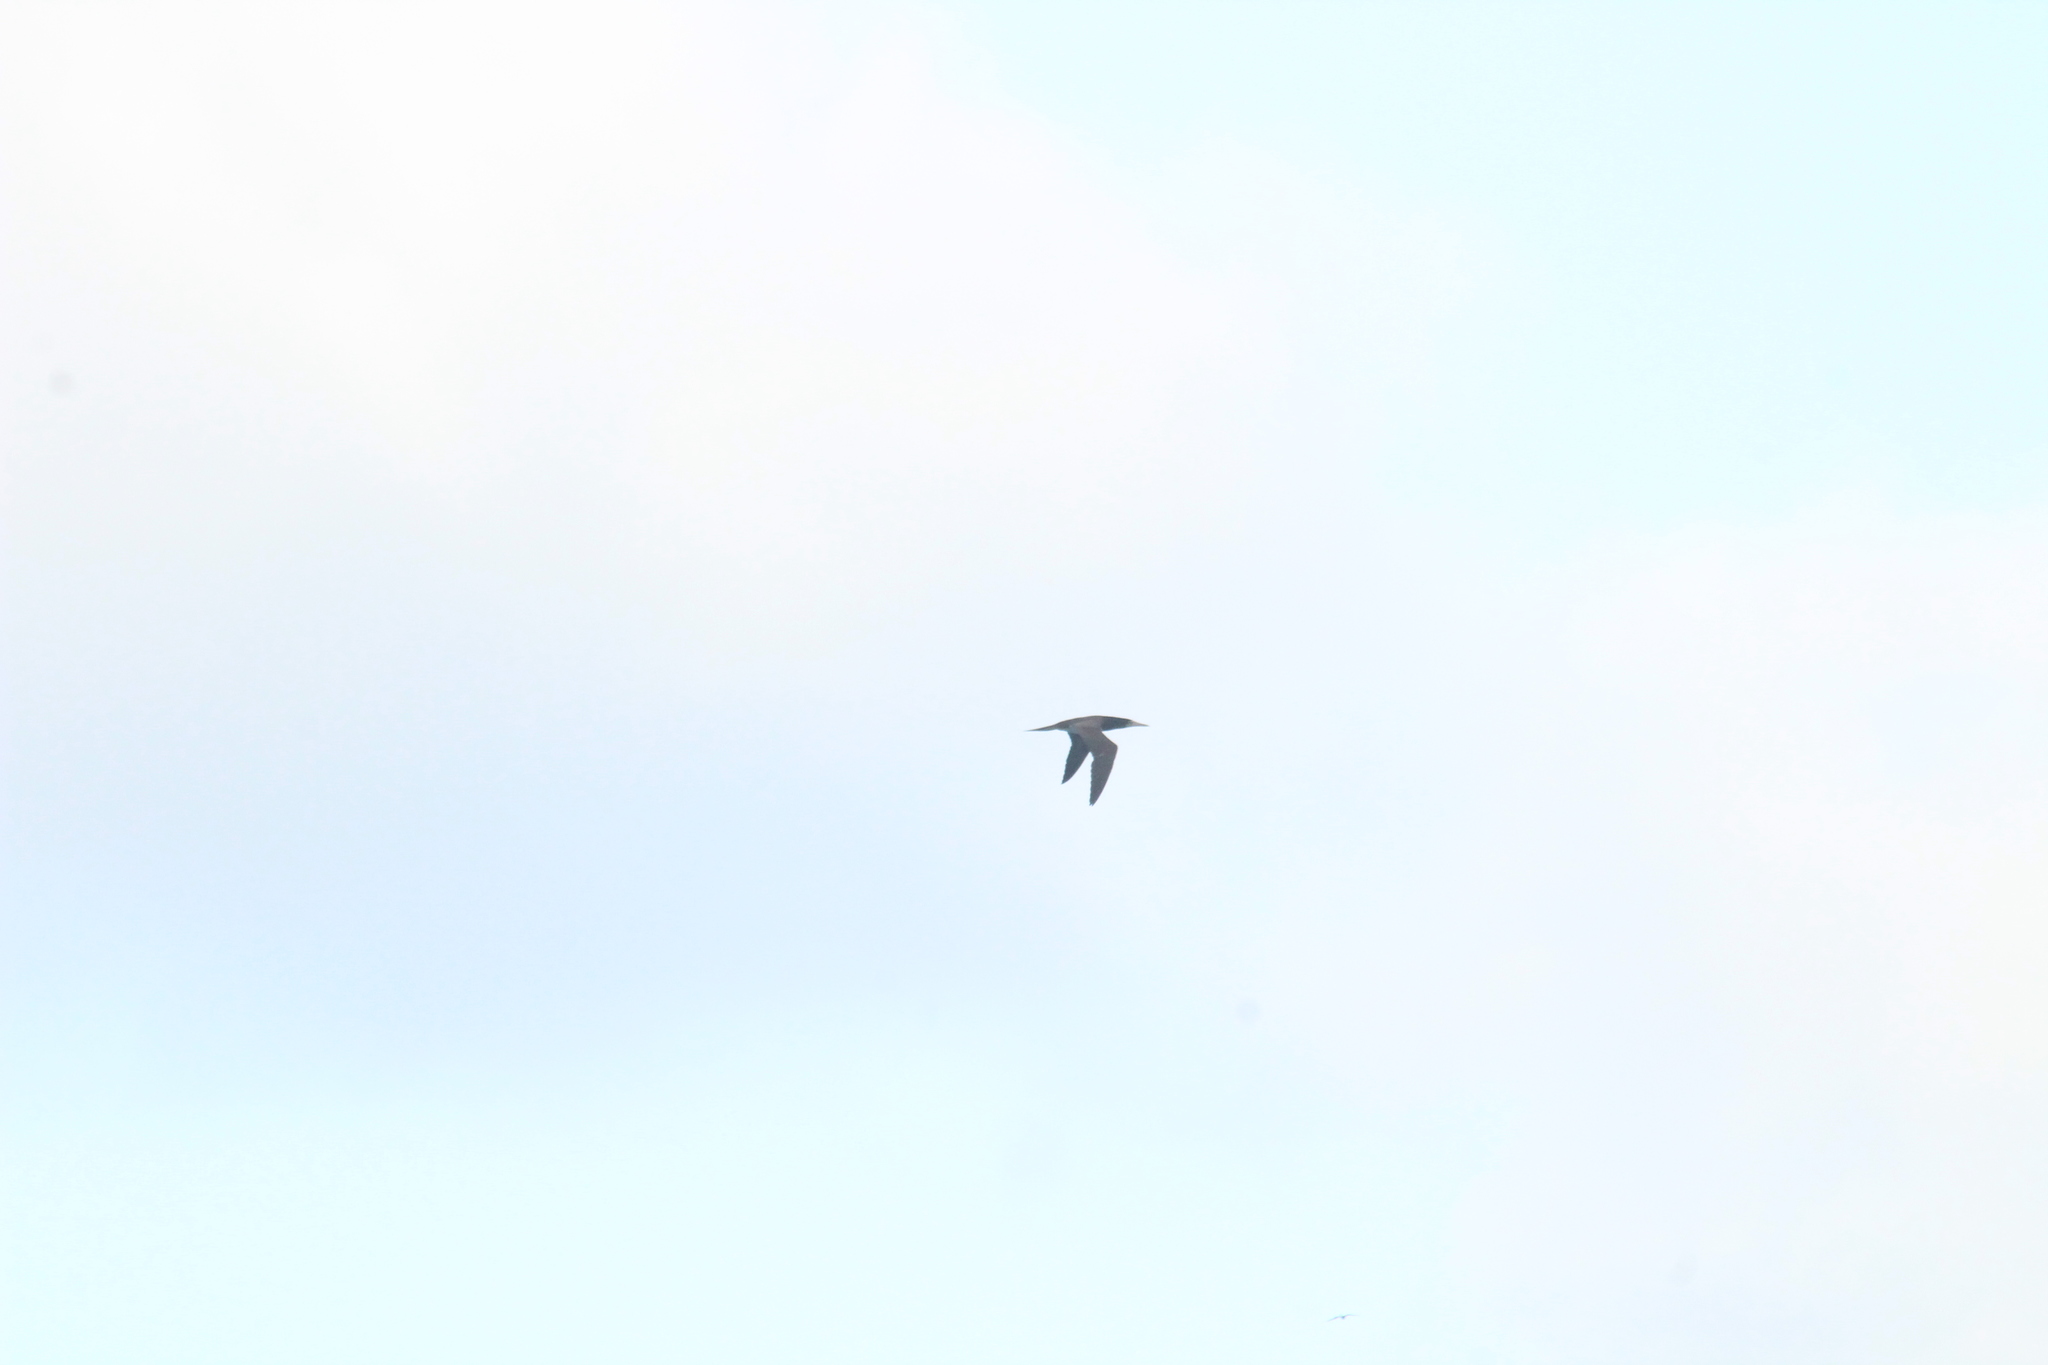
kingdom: Animalia
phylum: Chordata
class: Aves
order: Suliformes
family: Sulidae
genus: Sula
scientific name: Sula leucogaster
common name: Brown booby
